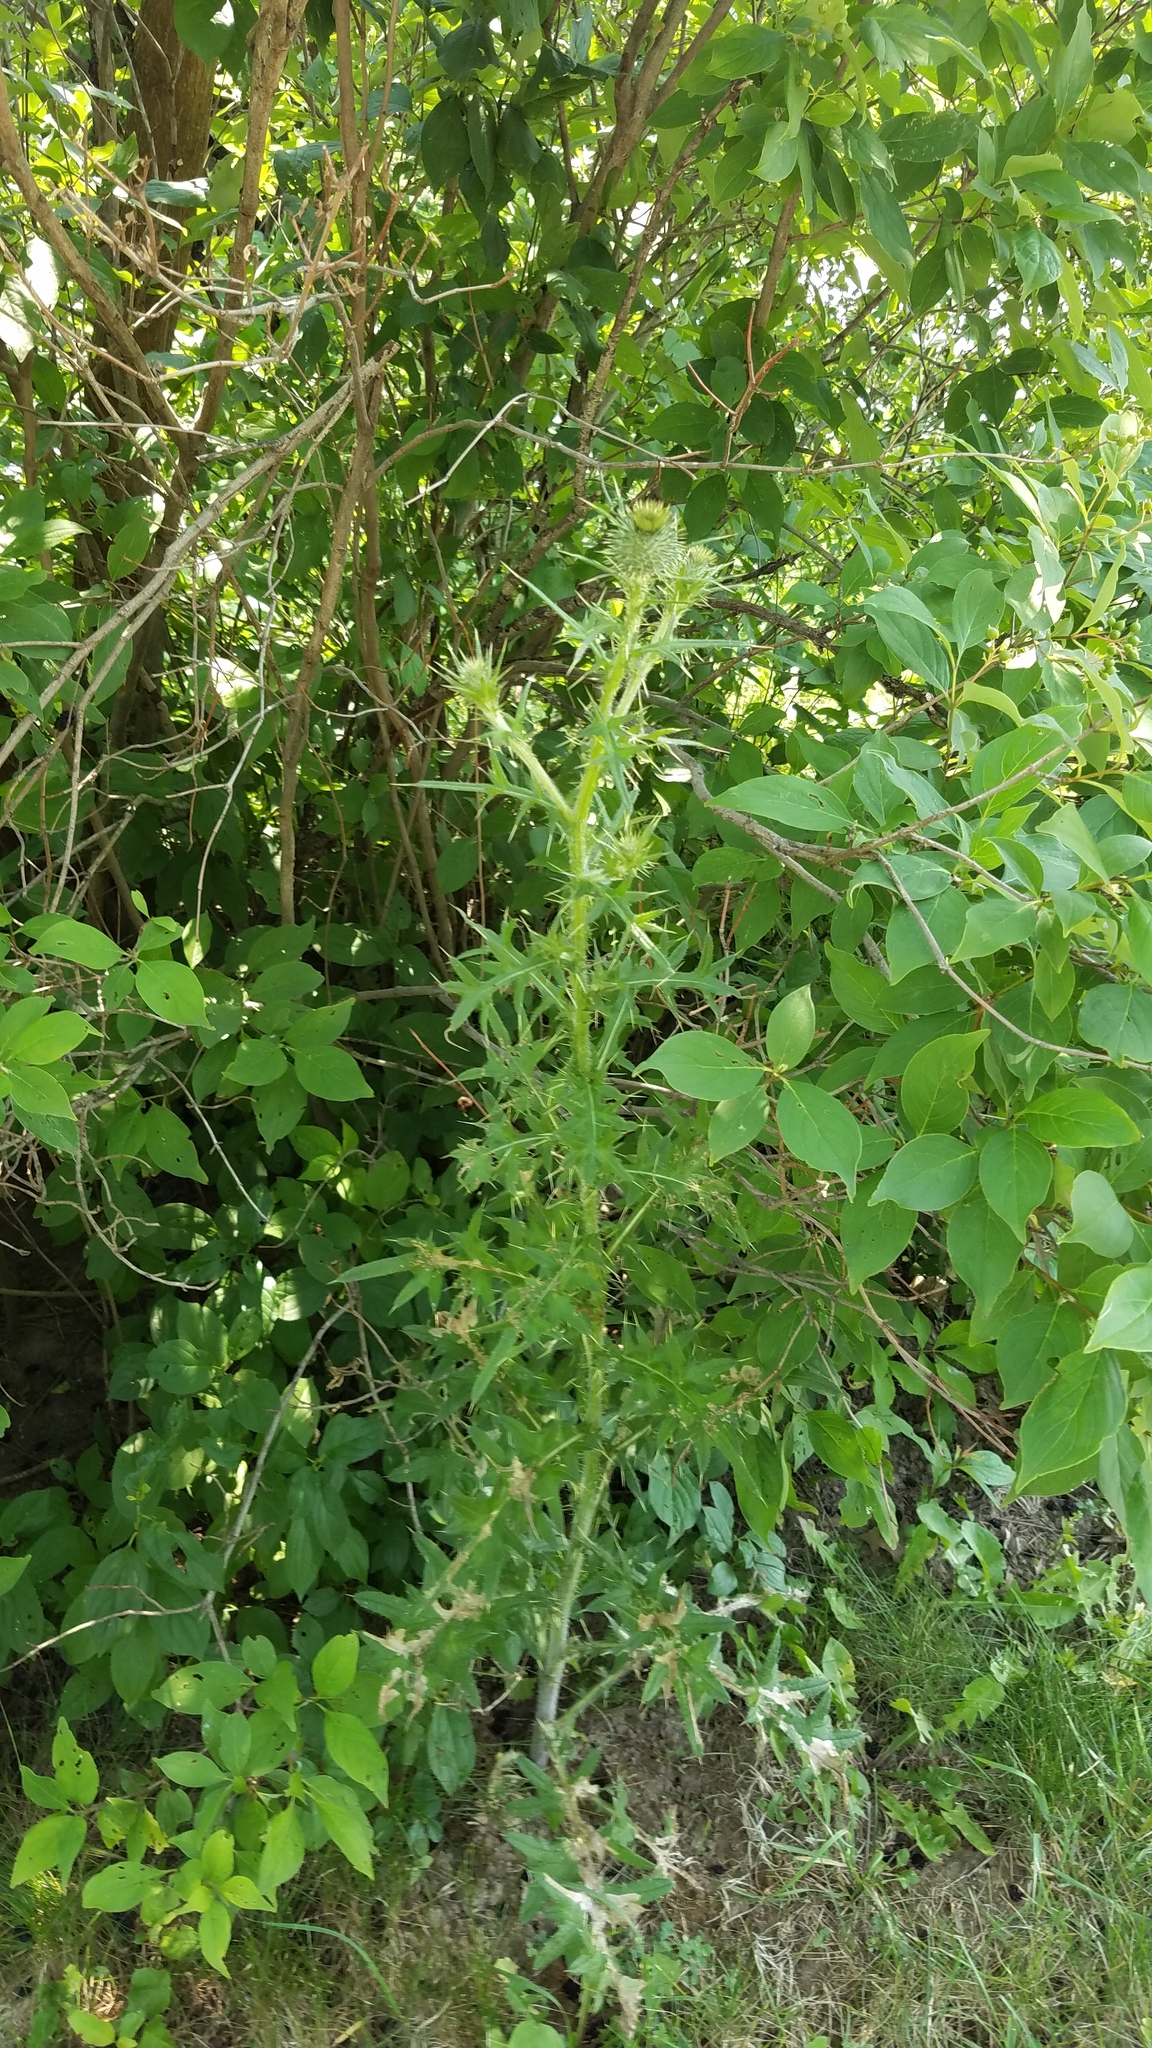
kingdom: Plantae
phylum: Tracheophyta
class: Magnoliopsida
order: Asterales
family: Asteraceae
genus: Cirsium
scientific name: Cirsium vulgare
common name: Bull thistle
